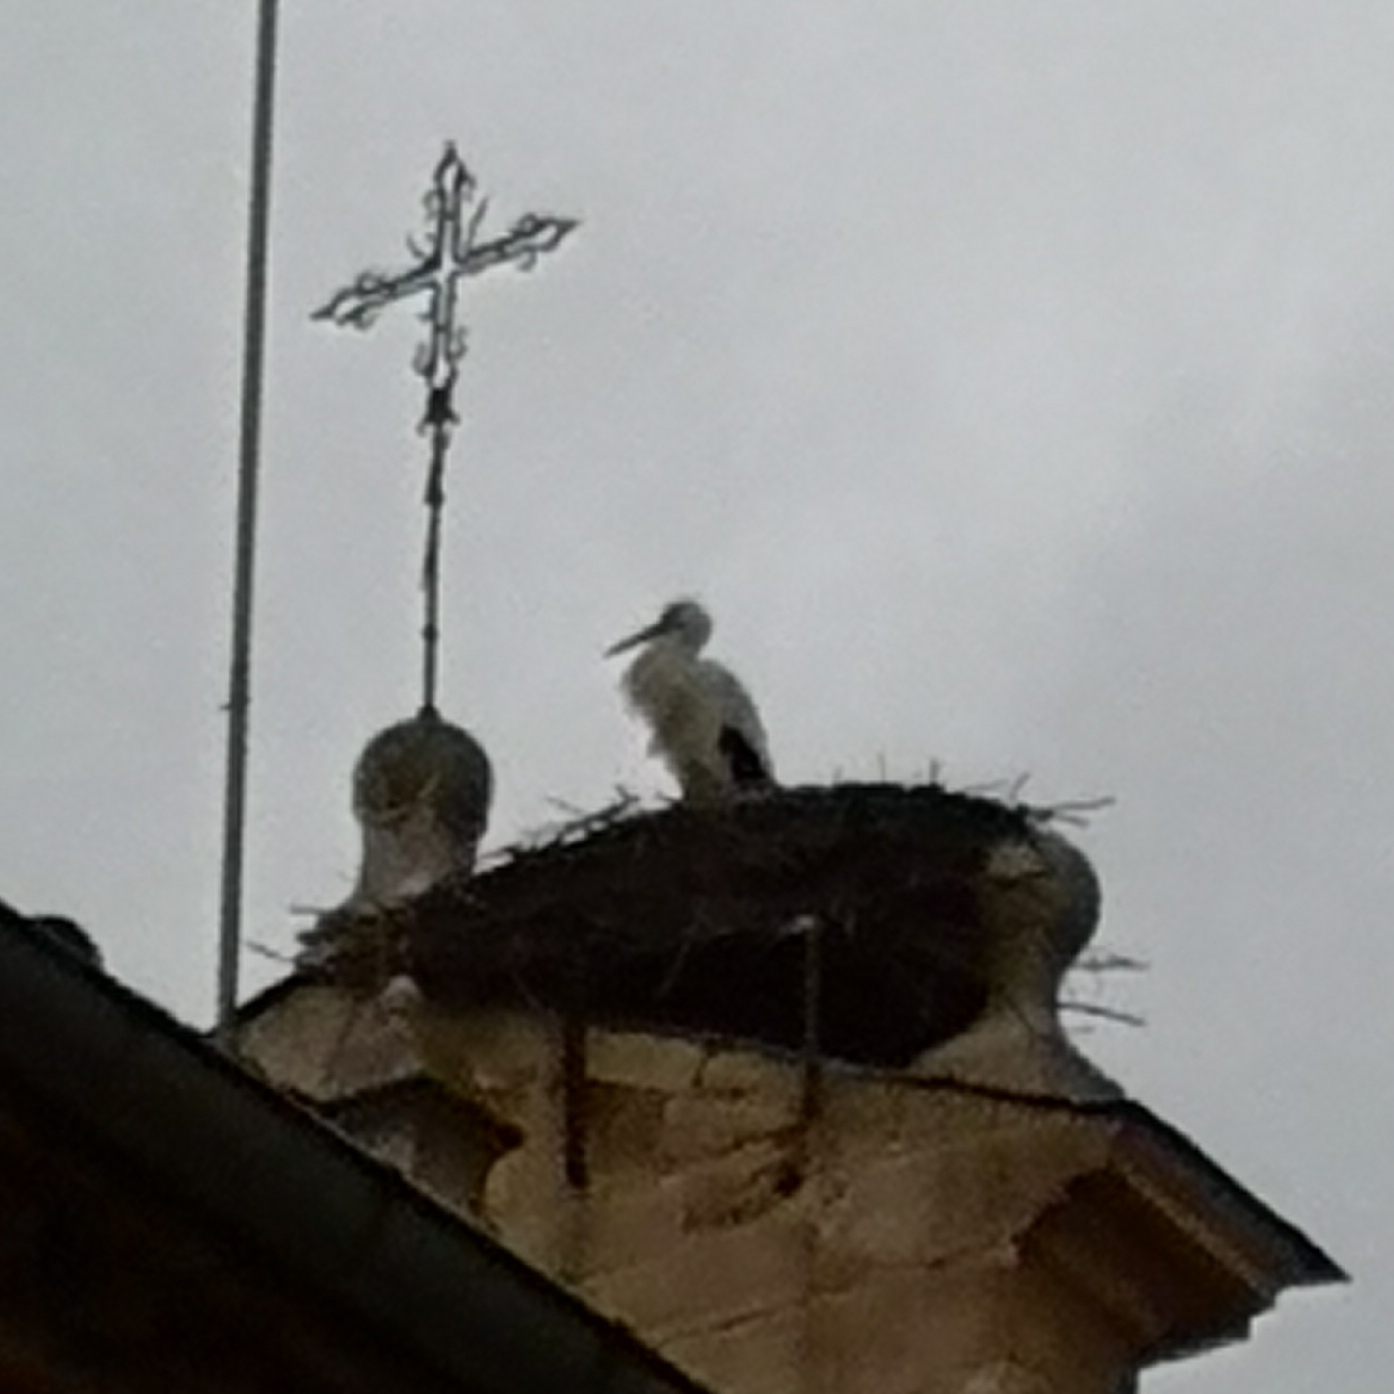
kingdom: Animalia
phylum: Chordata
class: Aves
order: Ciconiiformes
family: Ciconiidae
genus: Ciconia
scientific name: Ciconia ciconia
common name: White stork
